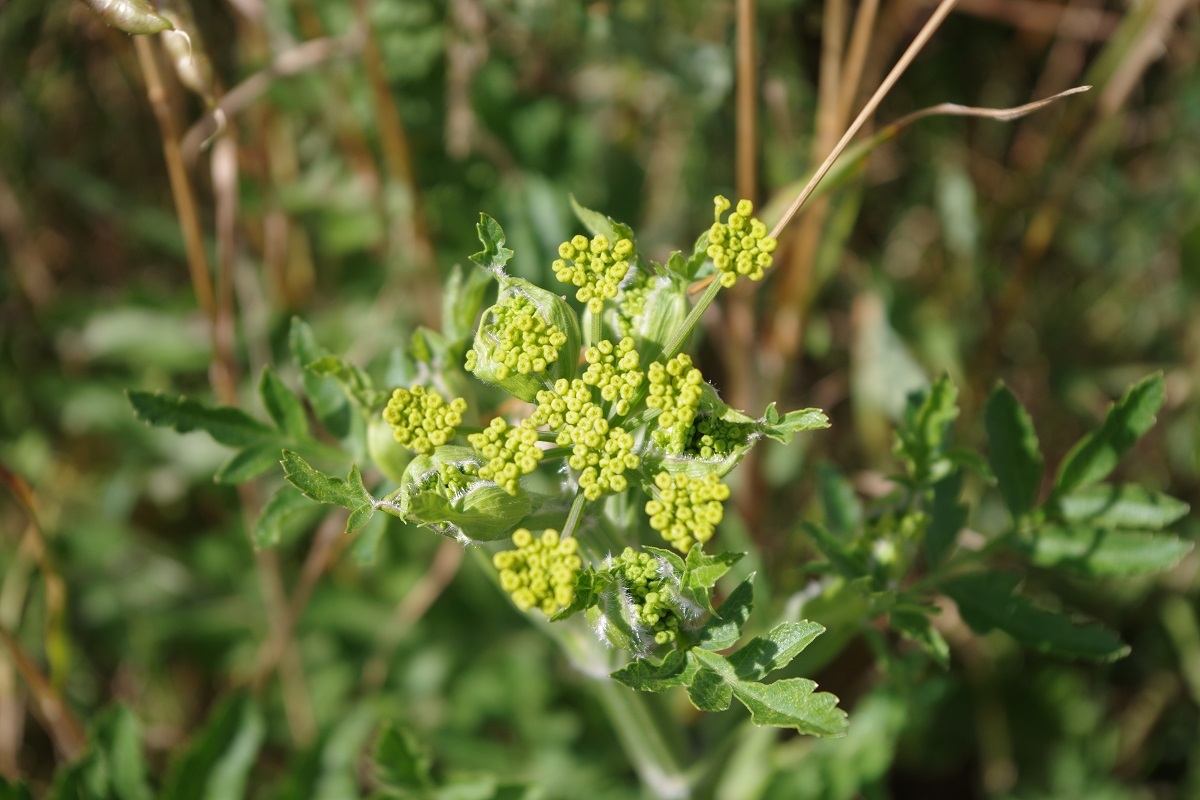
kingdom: Plantae
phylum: Tracheophyta
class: Magnoliopsida
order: Apiales
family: Apiaceae
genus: Pastinaca
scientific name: Pastinaca sativa
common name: Wild parsnip
